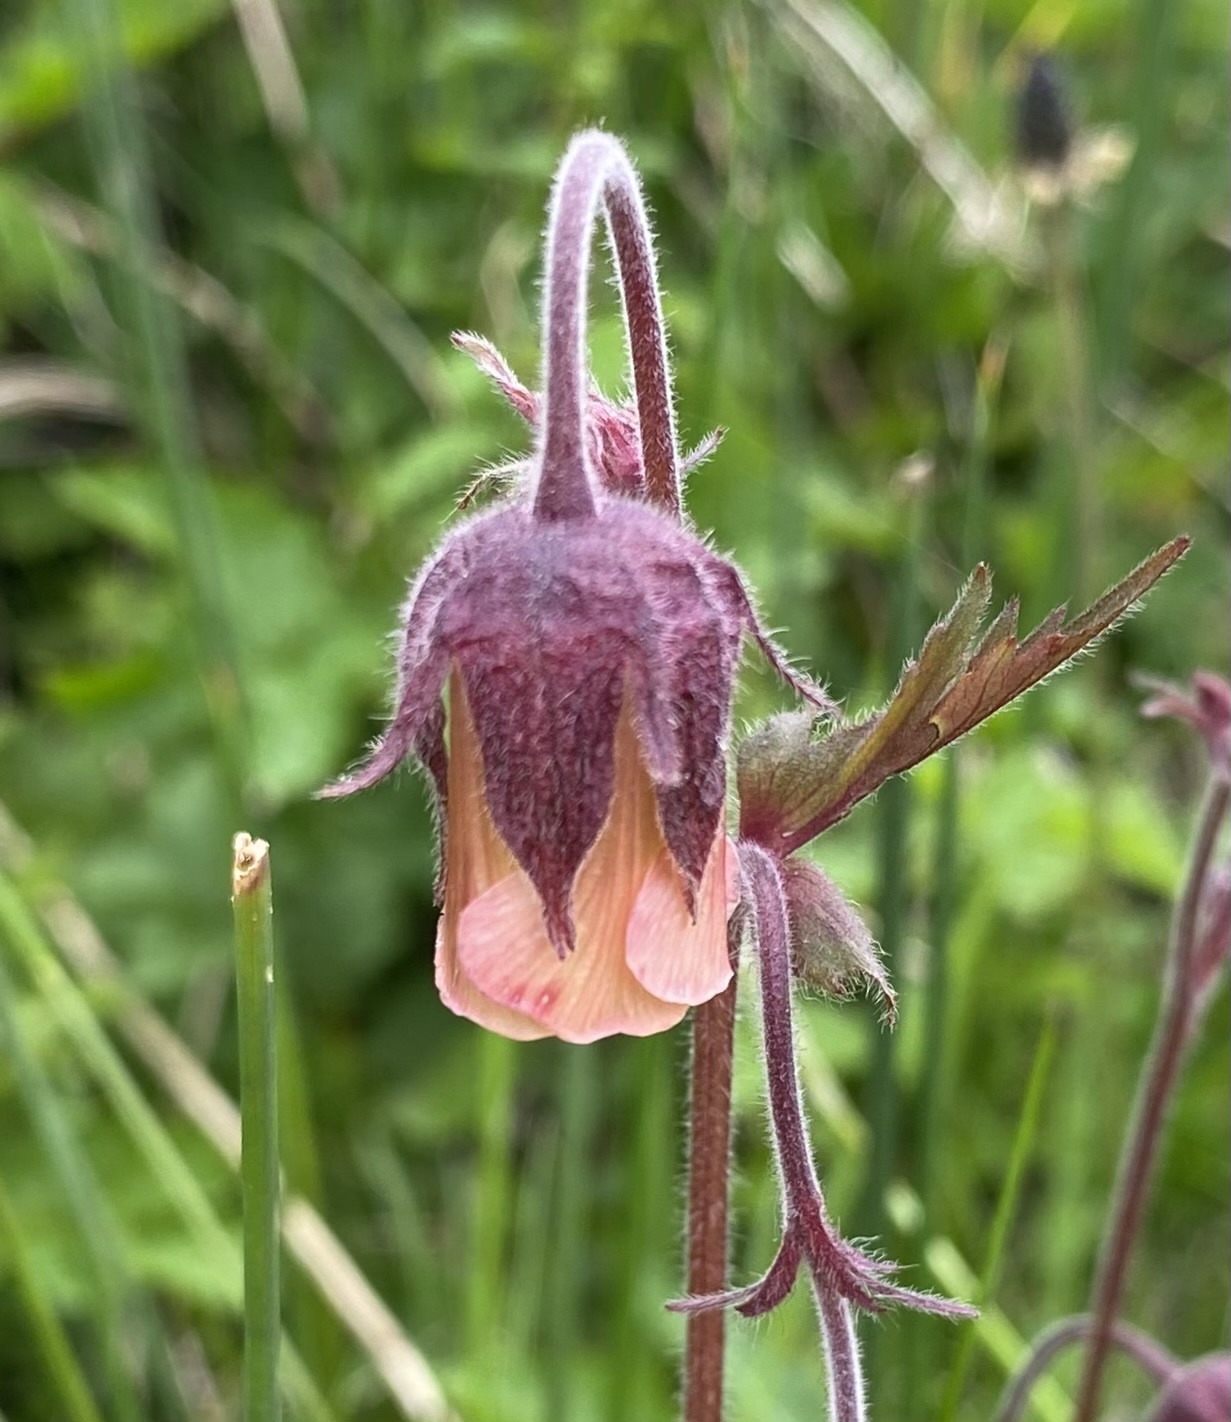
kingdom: Plantae
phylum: Tracheophyta
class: Magnoliopsida
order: Rosales
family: Rosaceae
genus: Geum
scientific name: Geum rivale
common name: Water avens
